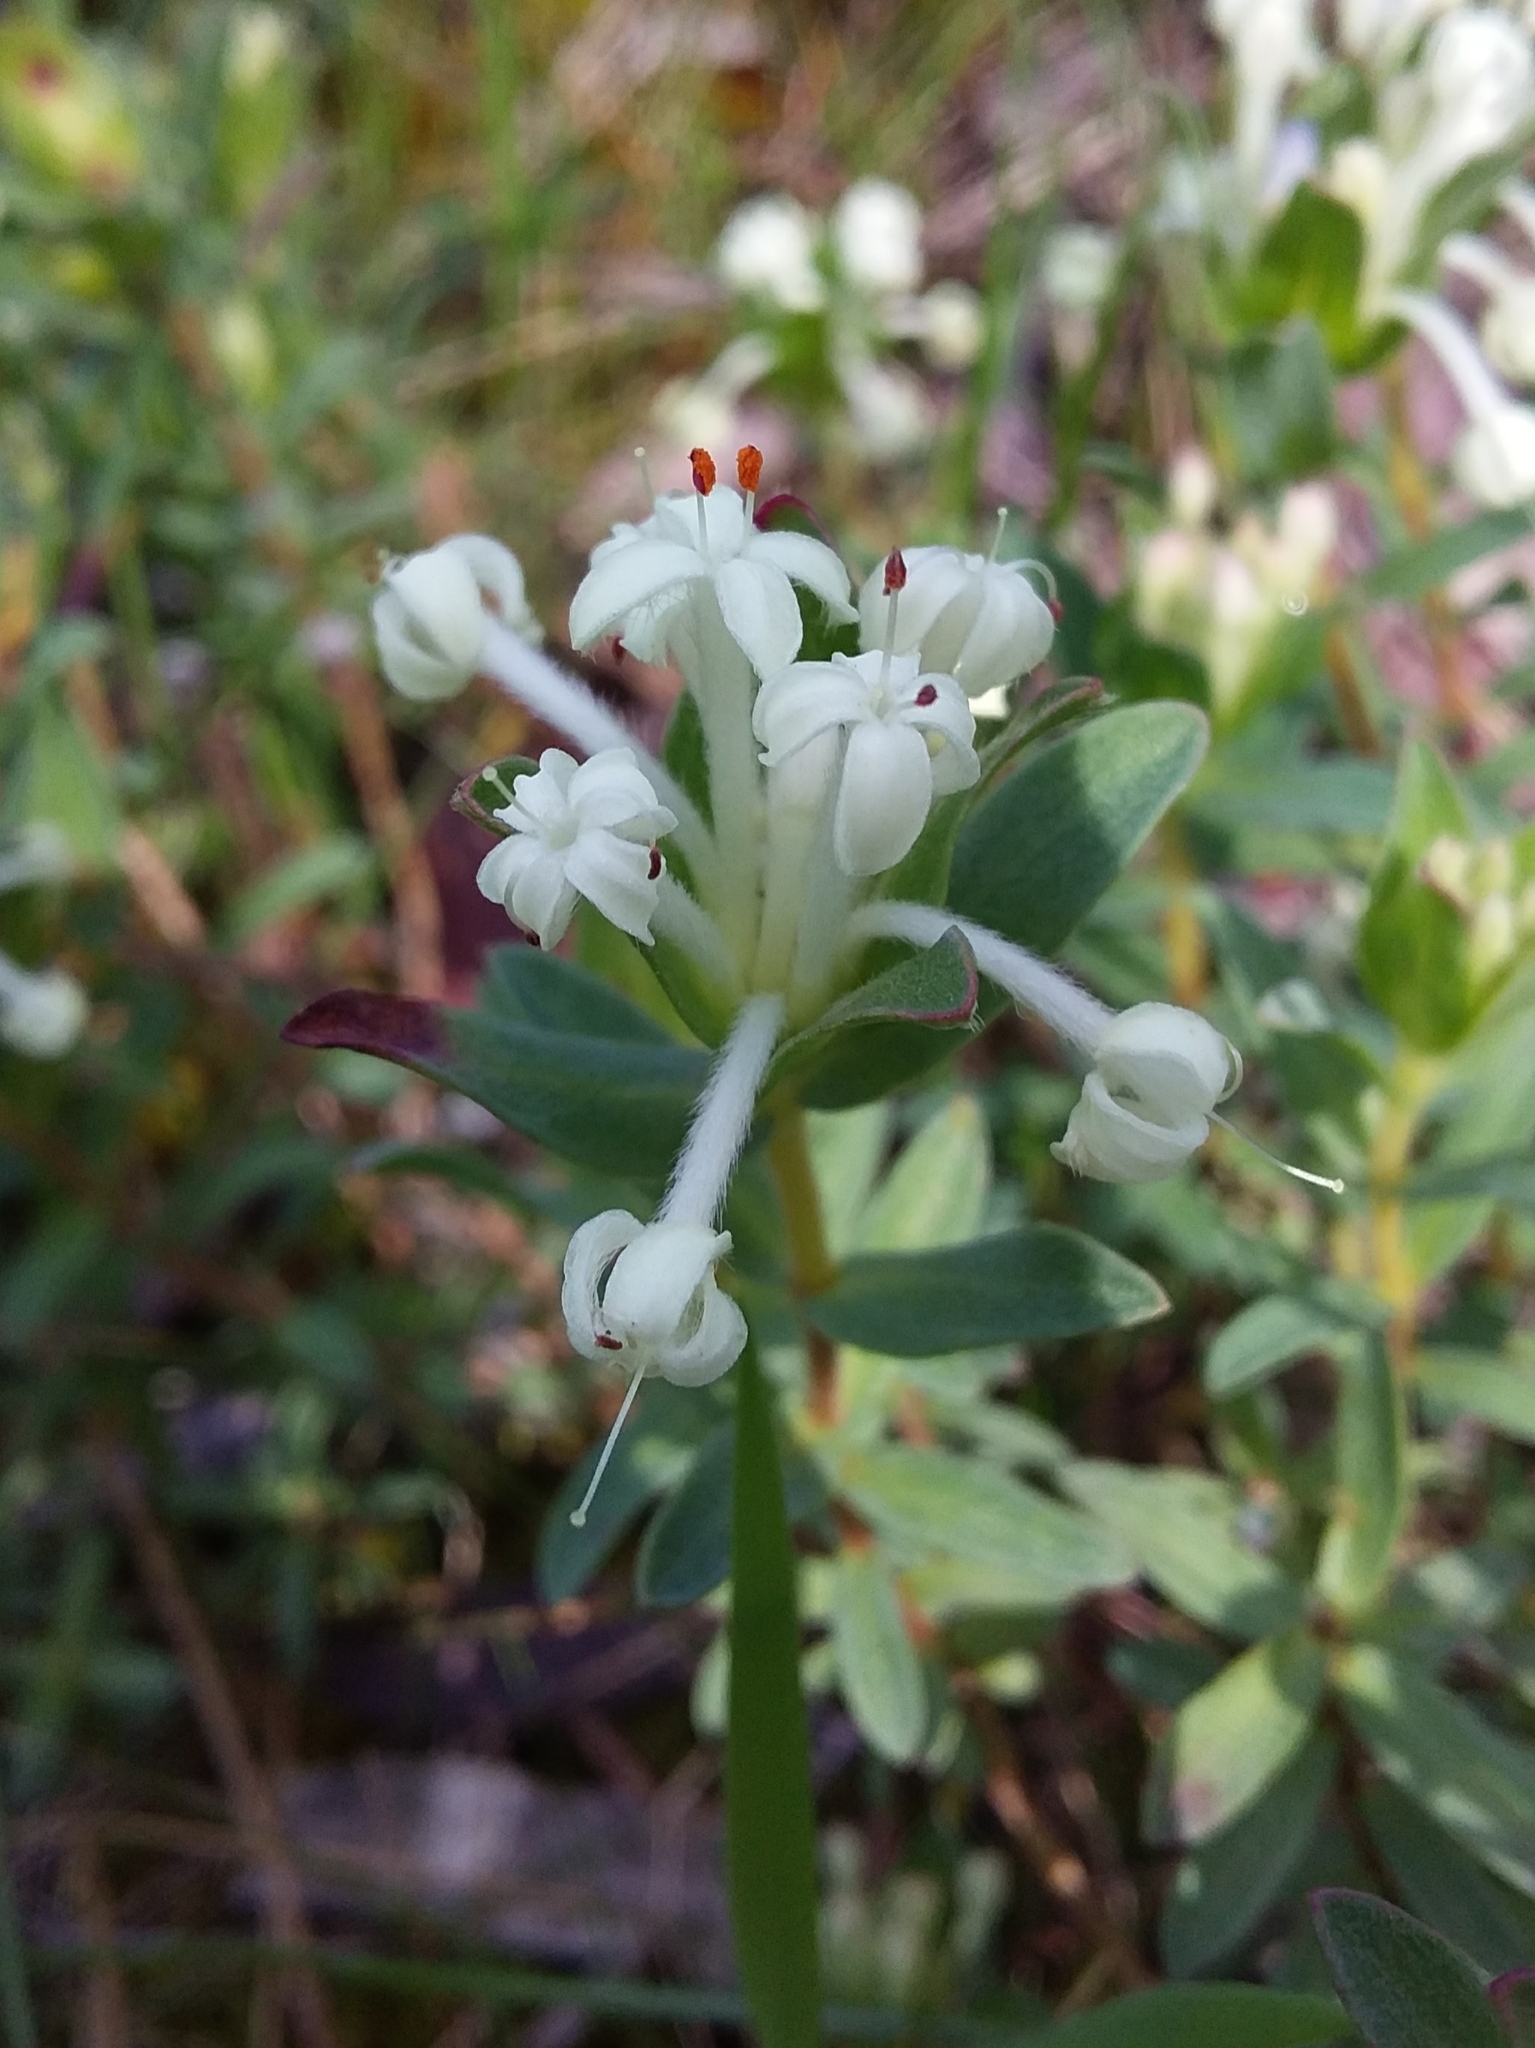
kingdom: Plantae
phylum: Tracheophyta
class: Magnoliopsida
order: Malvales
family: Thymelaeaceae
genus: Pimelea
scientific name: Pimelea humilis
